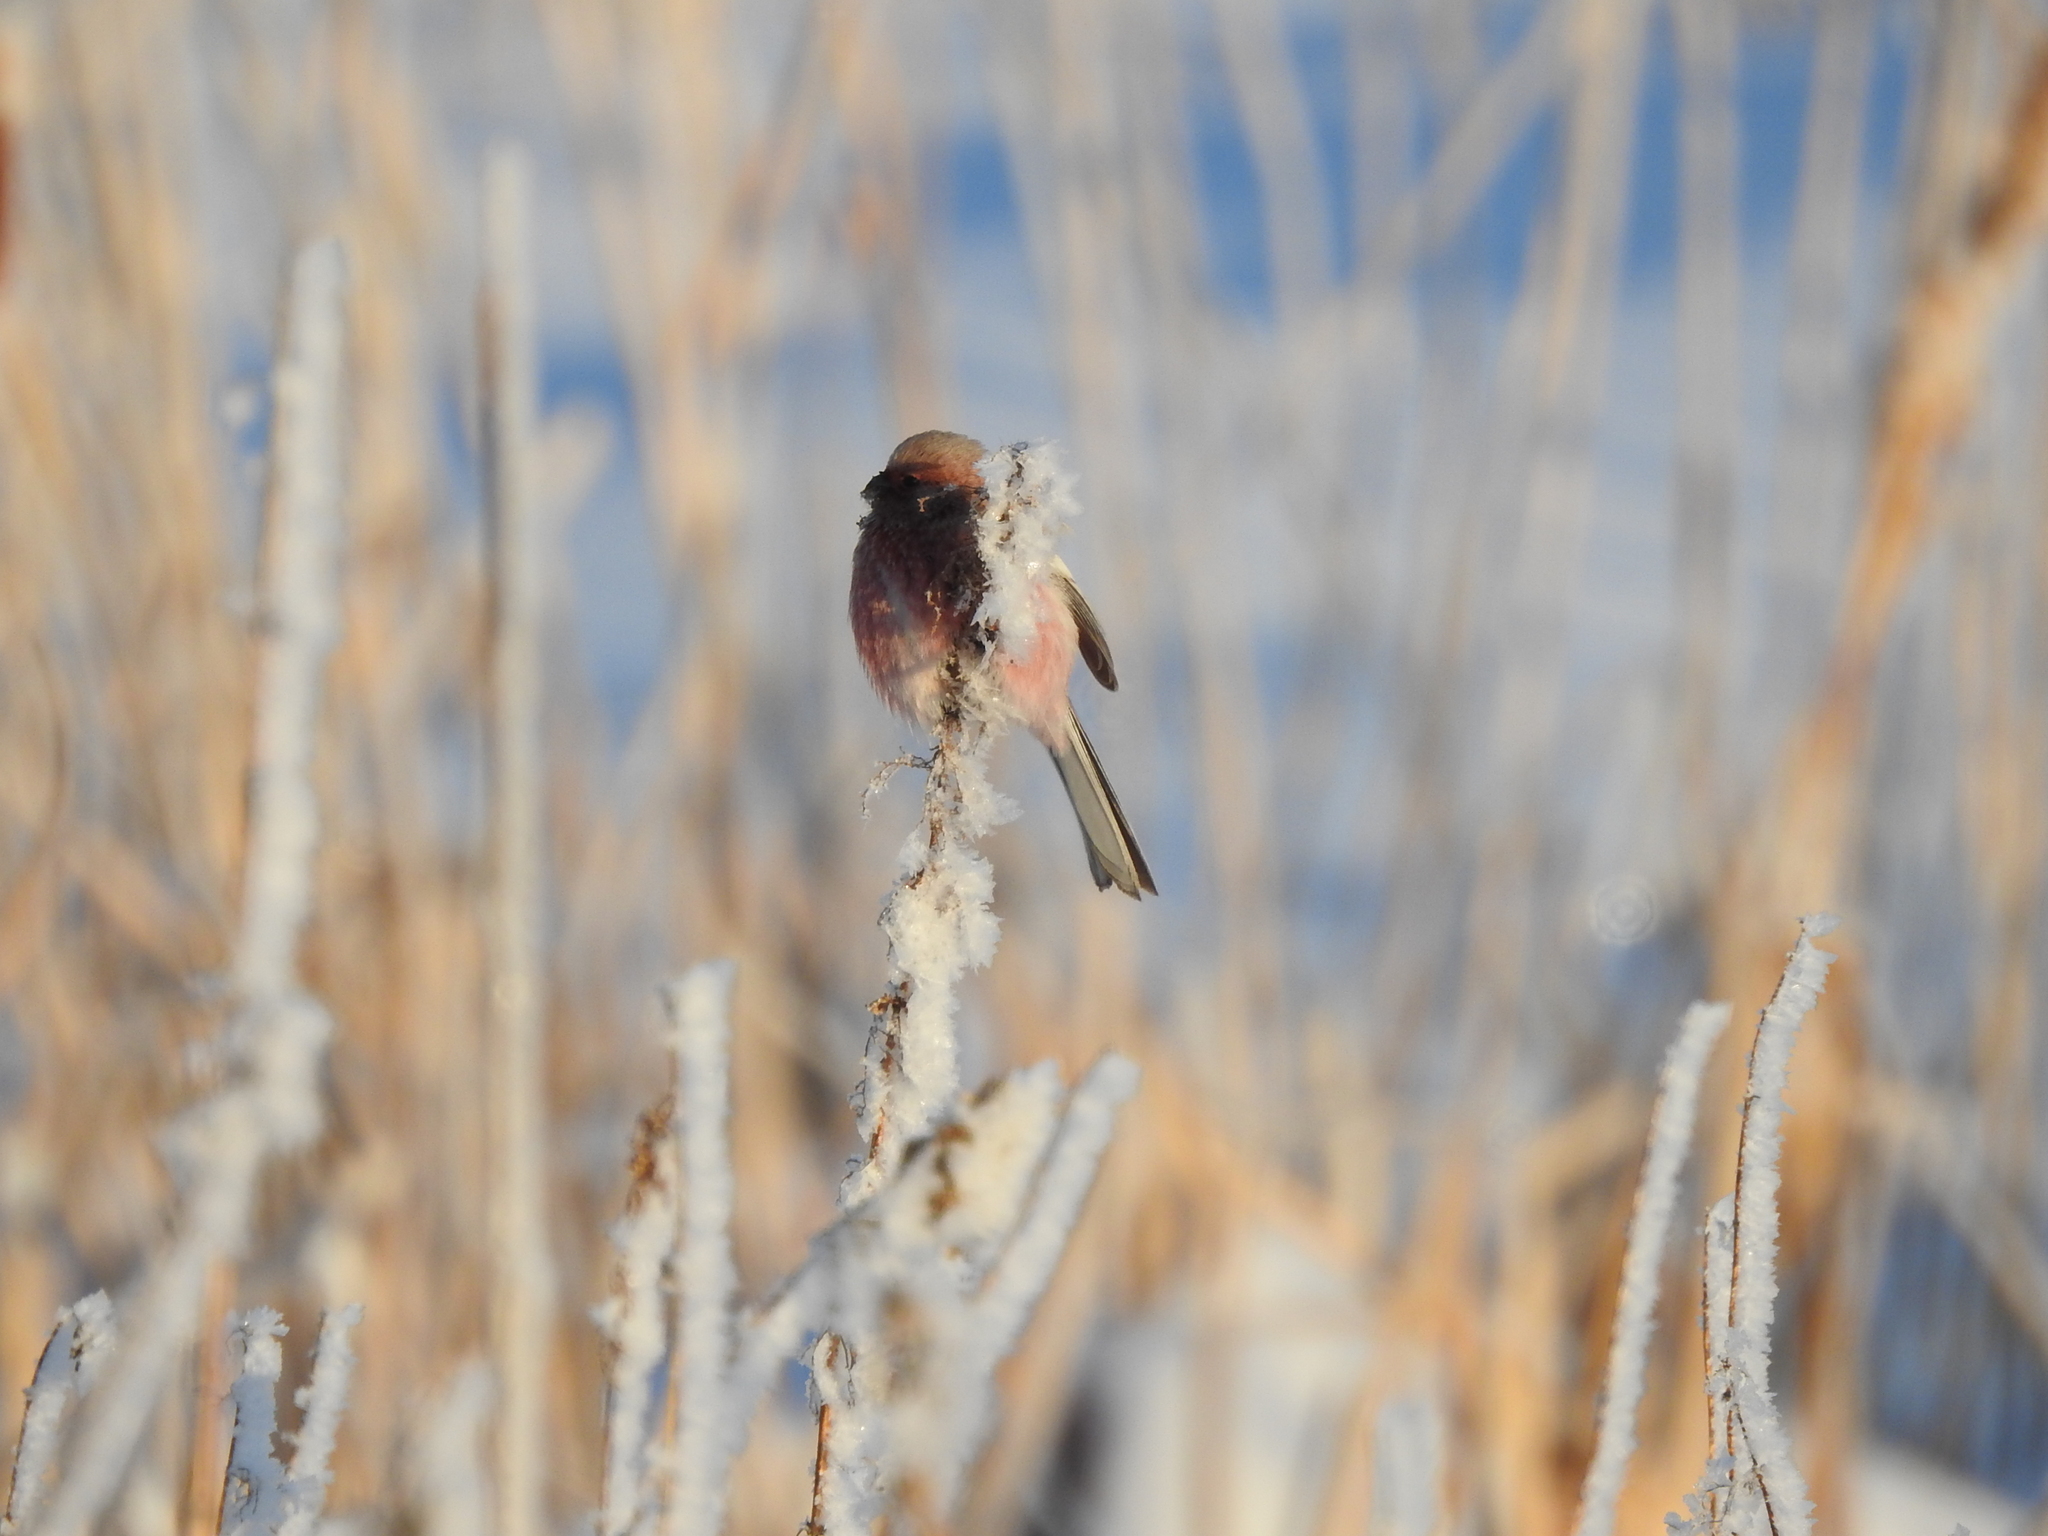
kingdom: Animalia
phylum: Chordata
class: Aves
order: Passeriformes
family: Fringillidae
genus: Carpodacus
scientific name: Carpodacus sibiricus
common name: Long-tailed rosefinch
